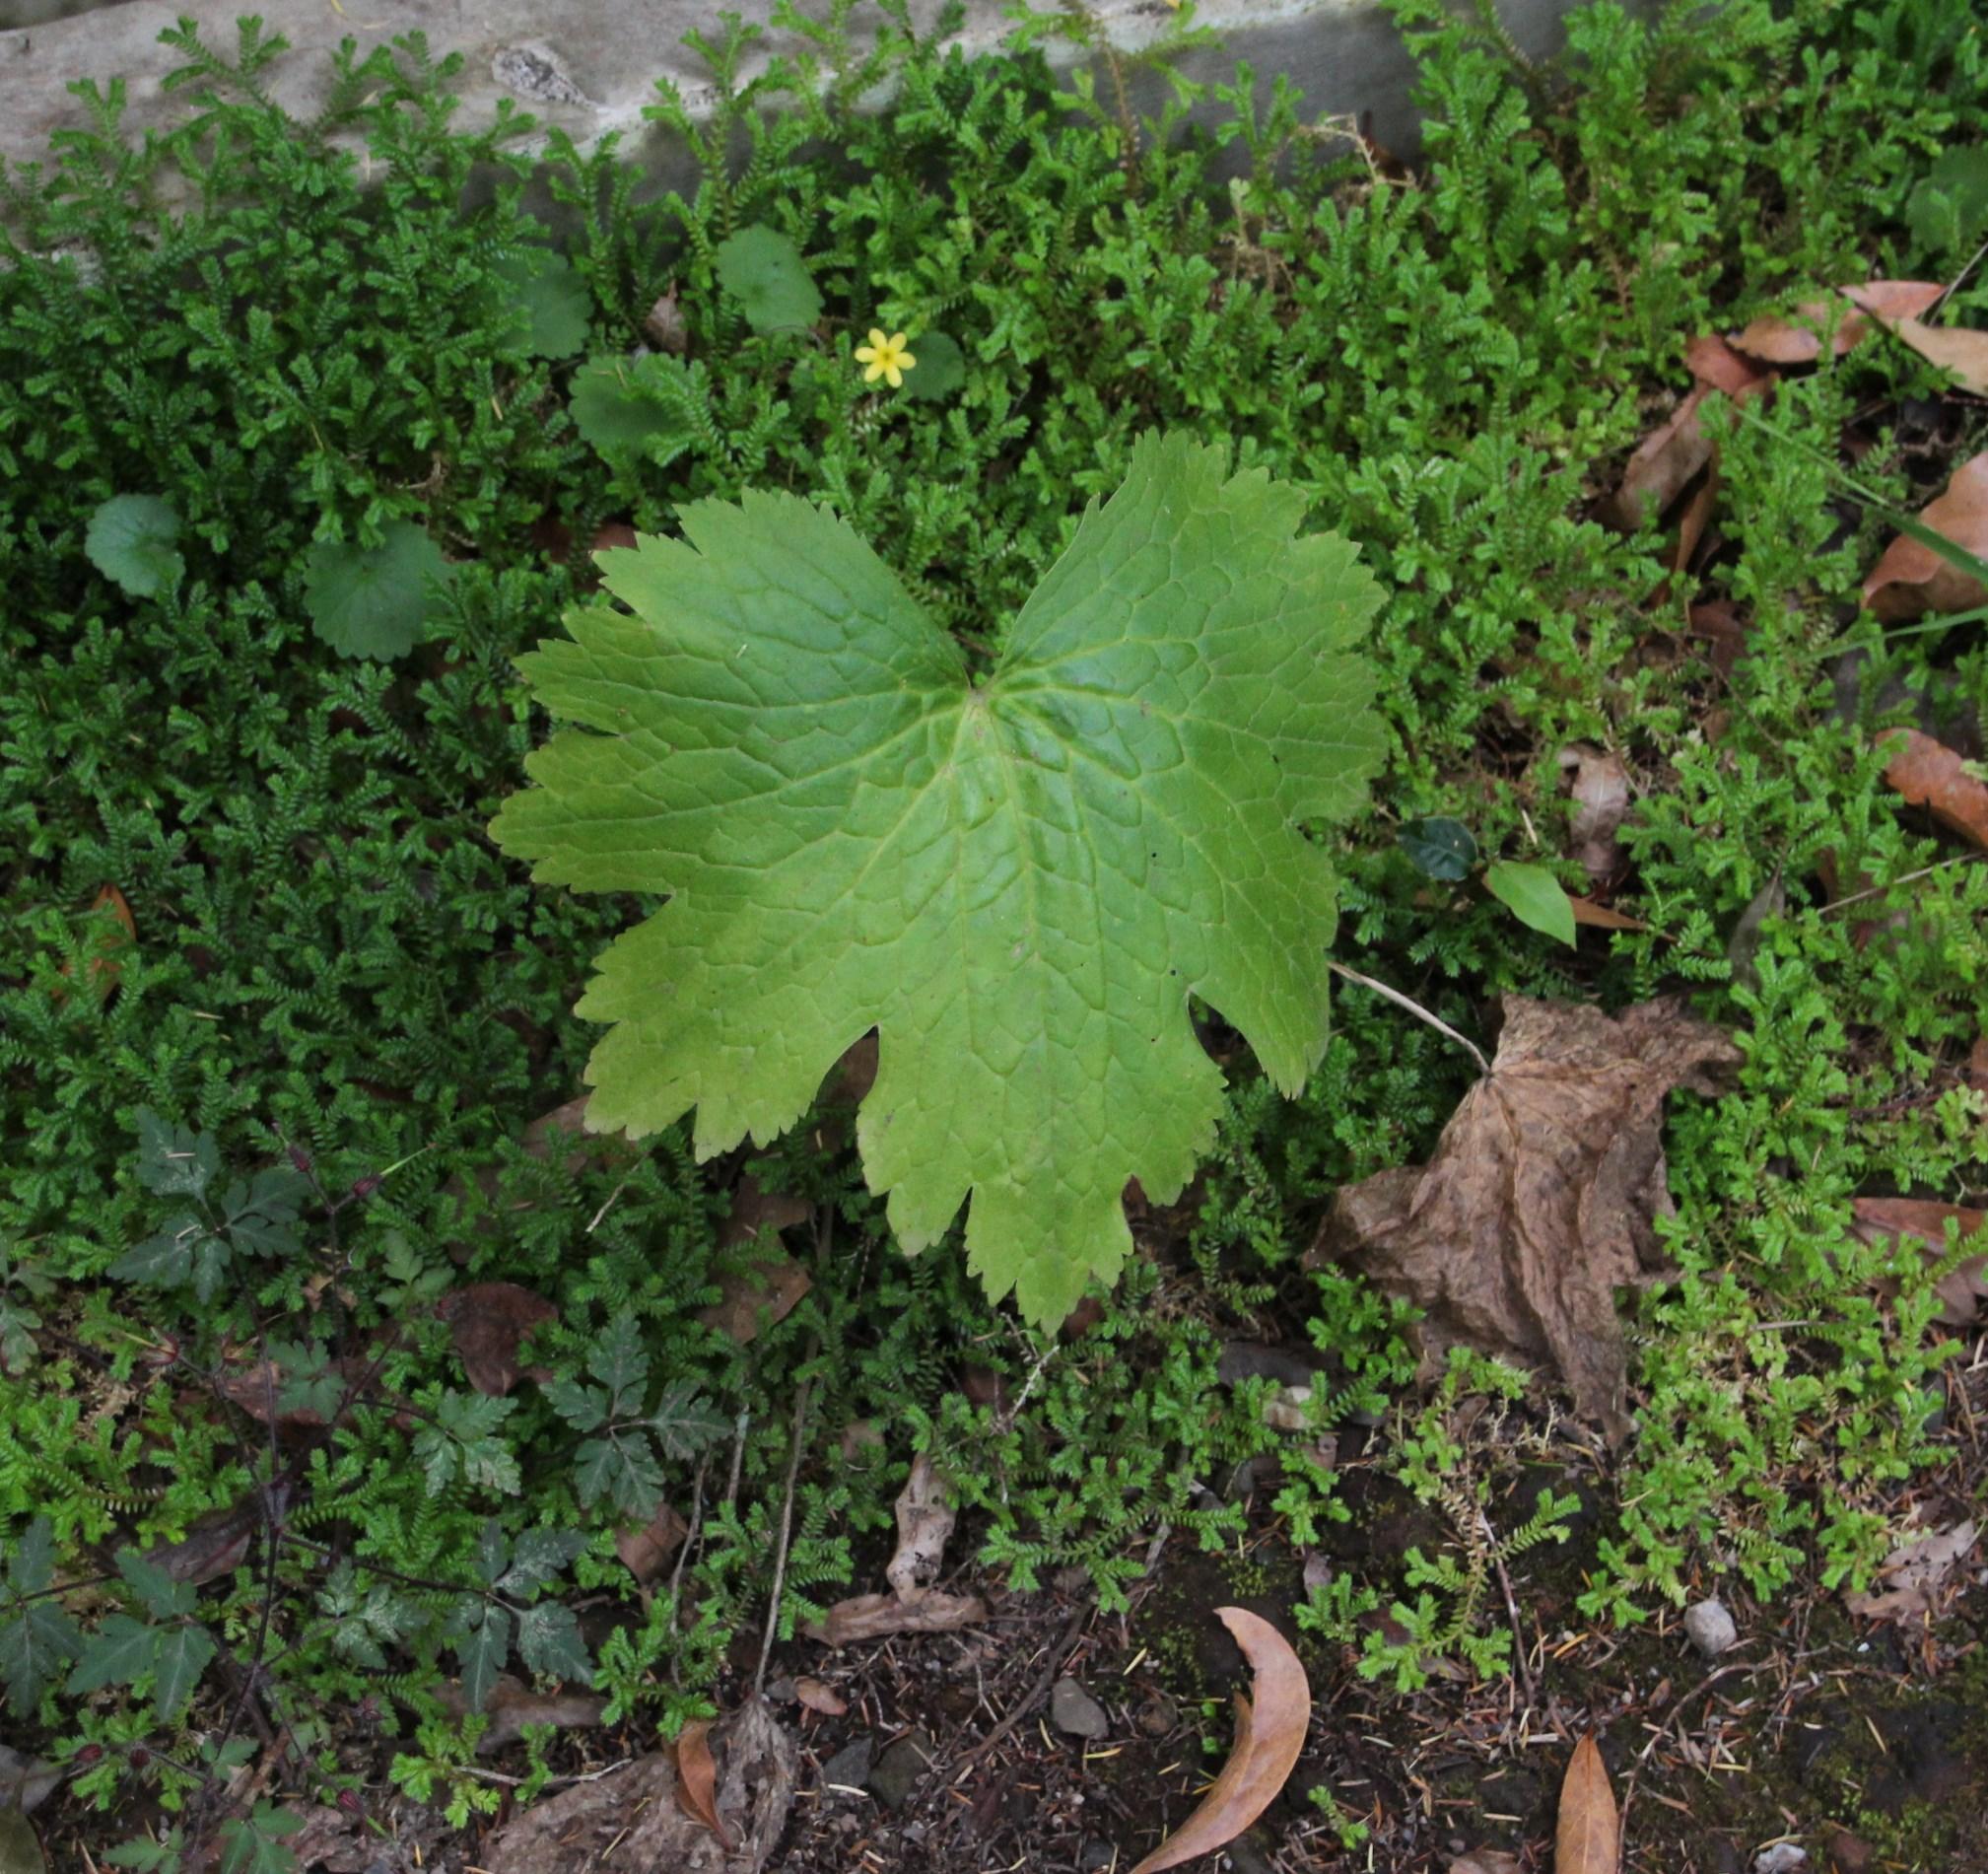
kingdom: Plantae
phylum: Tracheophyta
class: Magnoliopsida
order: Ranunculales
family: Ranunculaceae
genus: Ranunculus
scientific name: Ranunculus cortusifolius
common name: Azores buttercup
